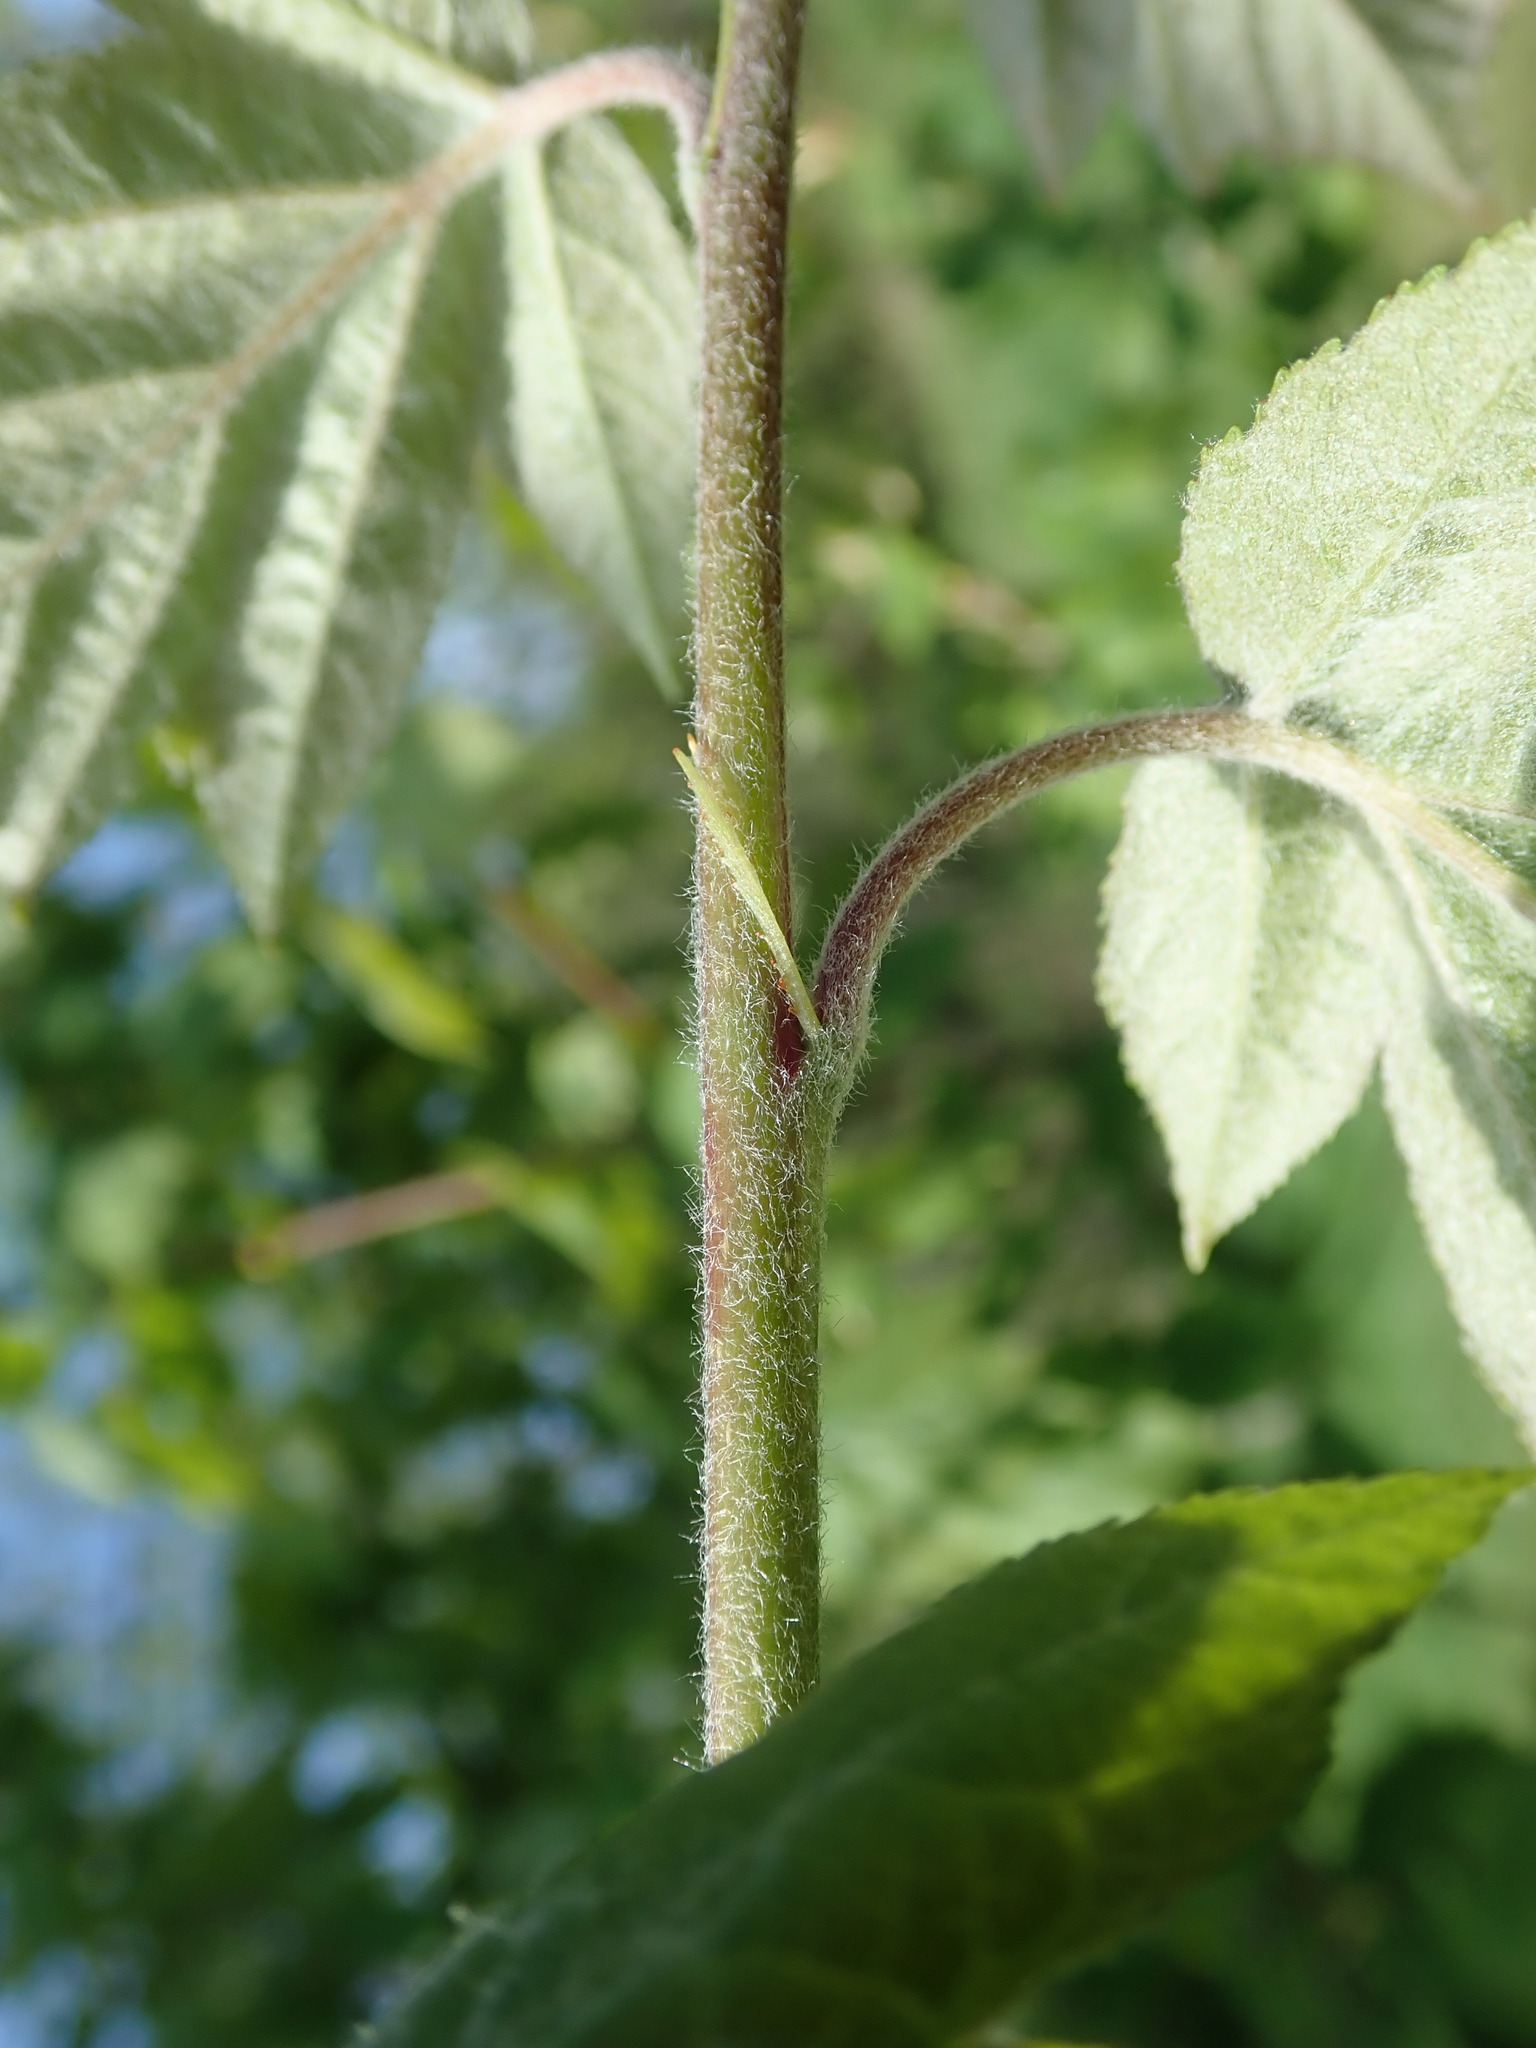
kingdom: Plantae
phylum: Tracheophyta
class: Magnoliopsida
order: Rosales
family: Rosaceae
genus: Torminalis
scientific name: Torminalis glaberrima
